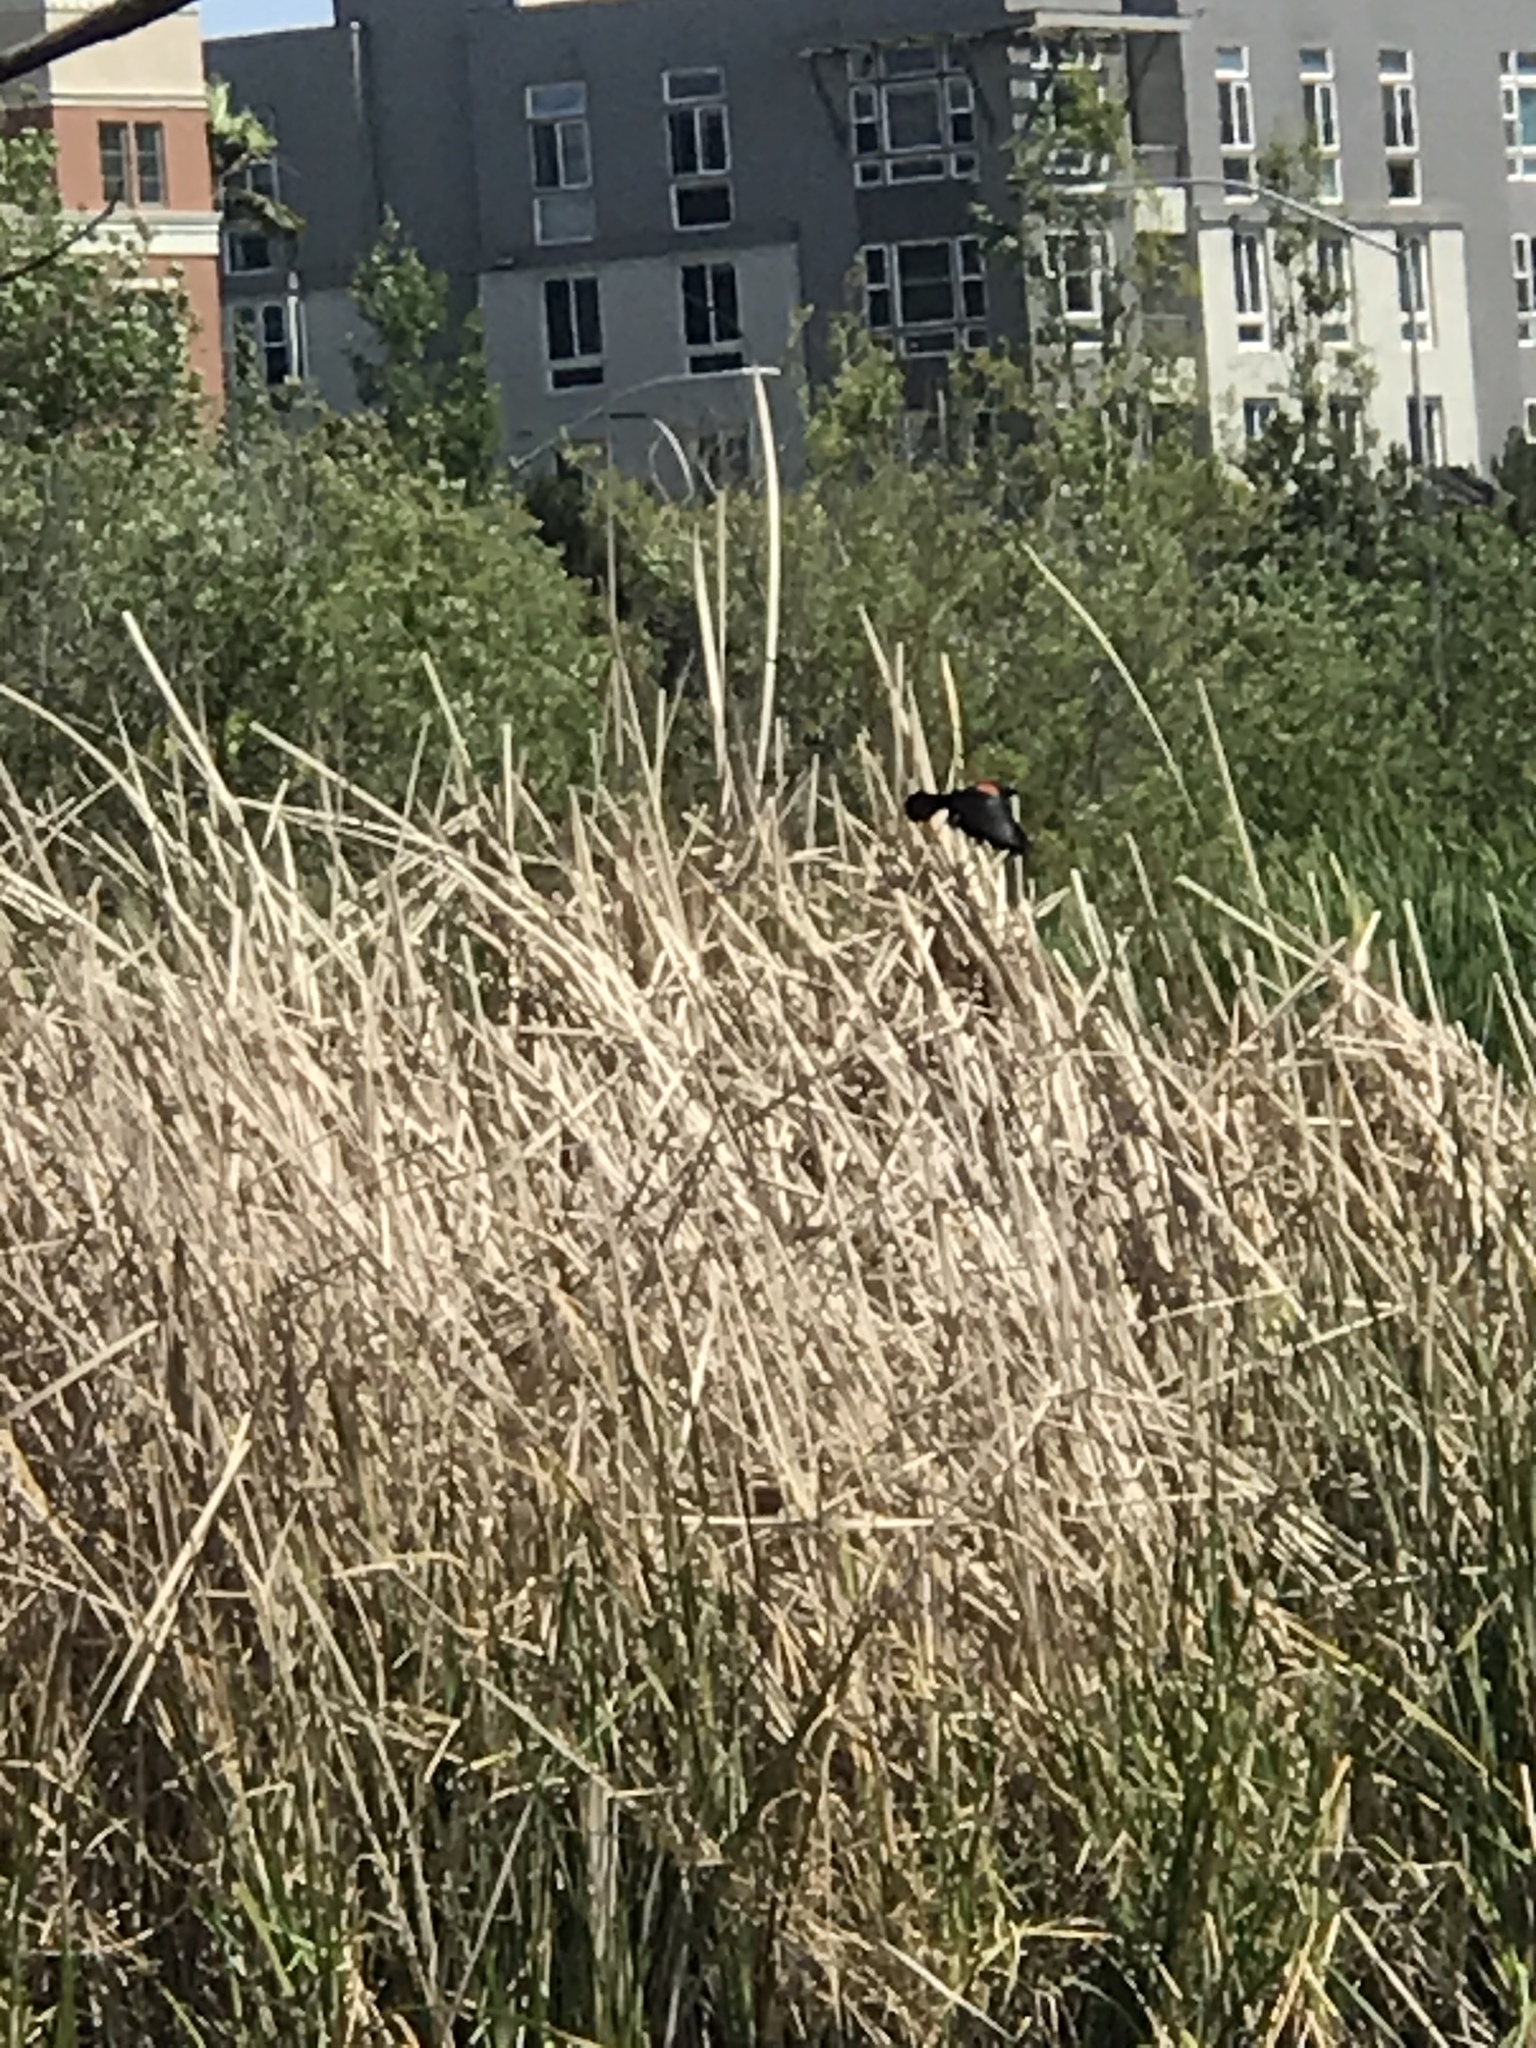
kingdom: Animalia
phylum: Chordata
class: Aves
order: Passeriformes
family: Icteridae
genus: Agelaius
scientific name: Agelaius phoeniceus
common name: Red-winged blackbird
